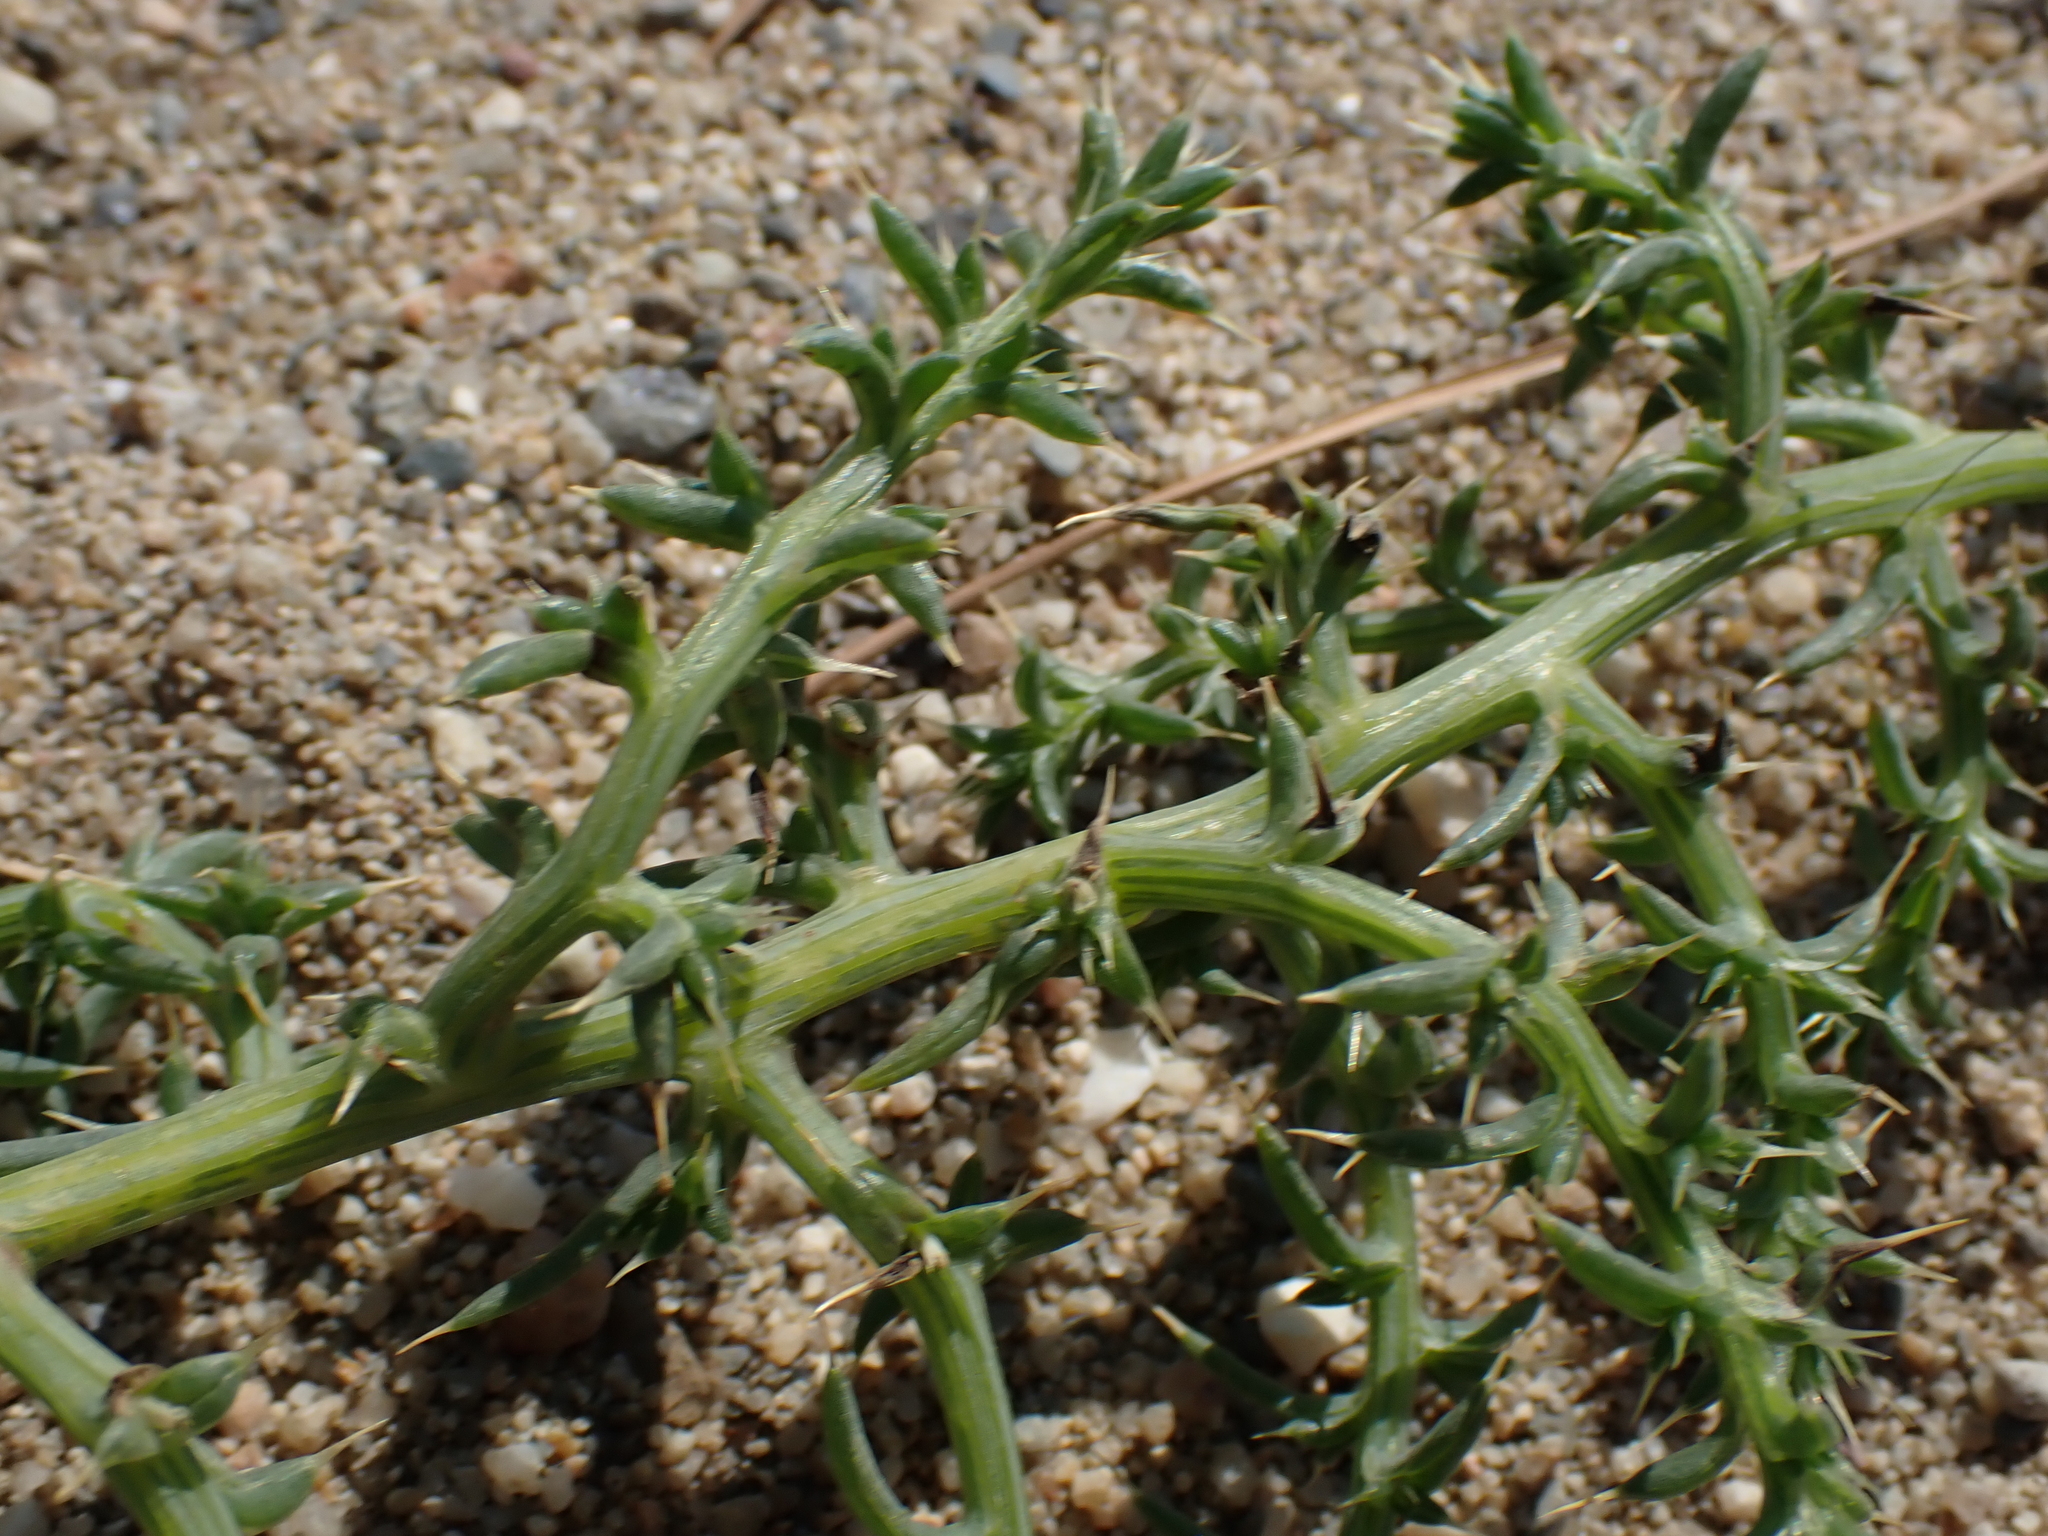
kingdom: Plantae
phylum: Tracheophyta
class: Magnoliopsida
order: Caryophyllales
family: Amaranthaceae
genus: Salsola
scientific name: Salsola kali
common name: Saltwort
